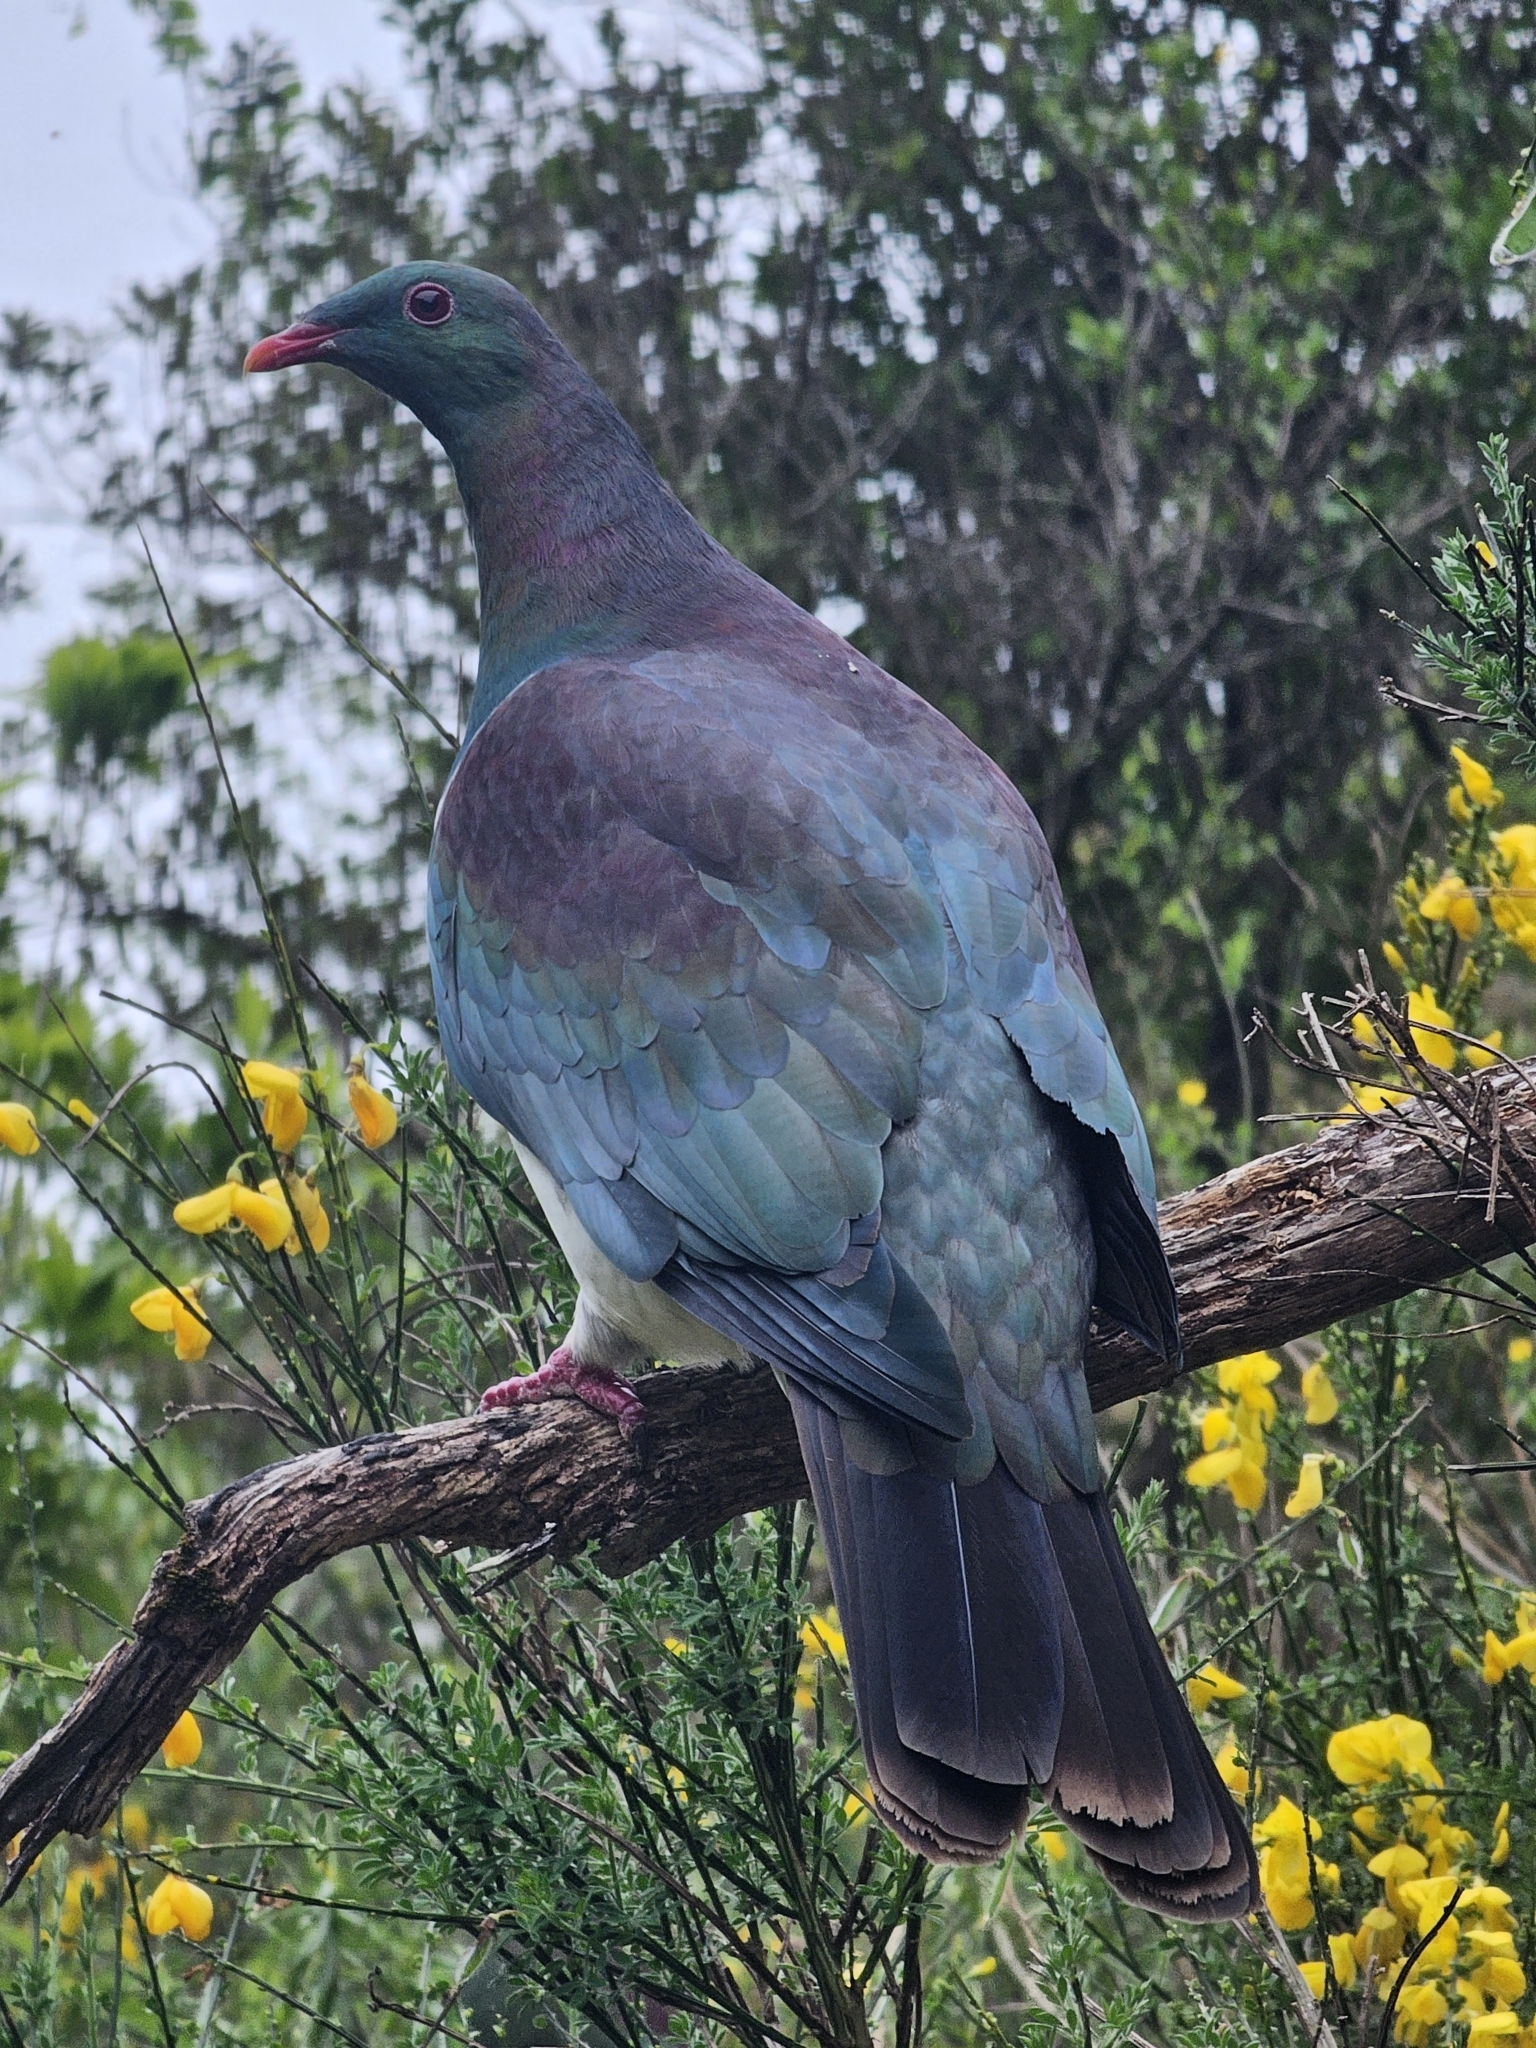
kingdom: Animalia
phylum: Chordata
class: Aves
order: Columbiformes
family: Columbidae
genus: Hemiphaga
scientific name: Hemiphaga novaeseelandiae
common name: New zealand pigeon
